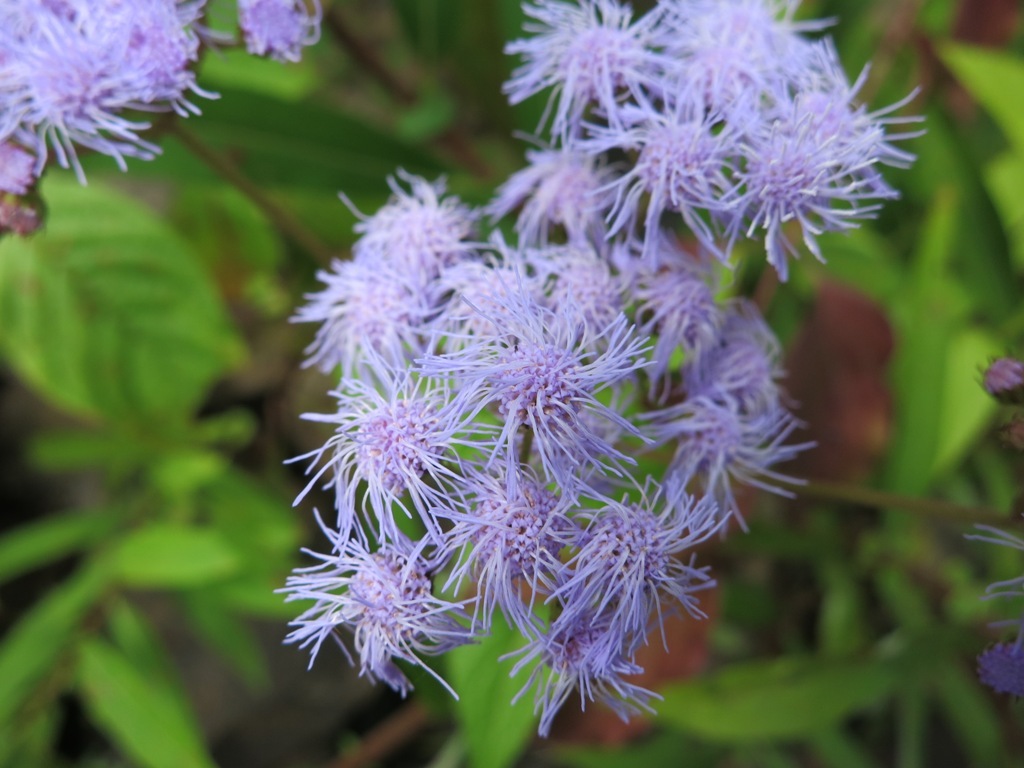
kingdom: Plantae
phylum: Tracheophyta
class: Magnoliopsida
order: Asterales
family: Asteraceae
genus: Conoclinium
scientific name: Conoclinium coelestinum
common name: Blue mistflower
